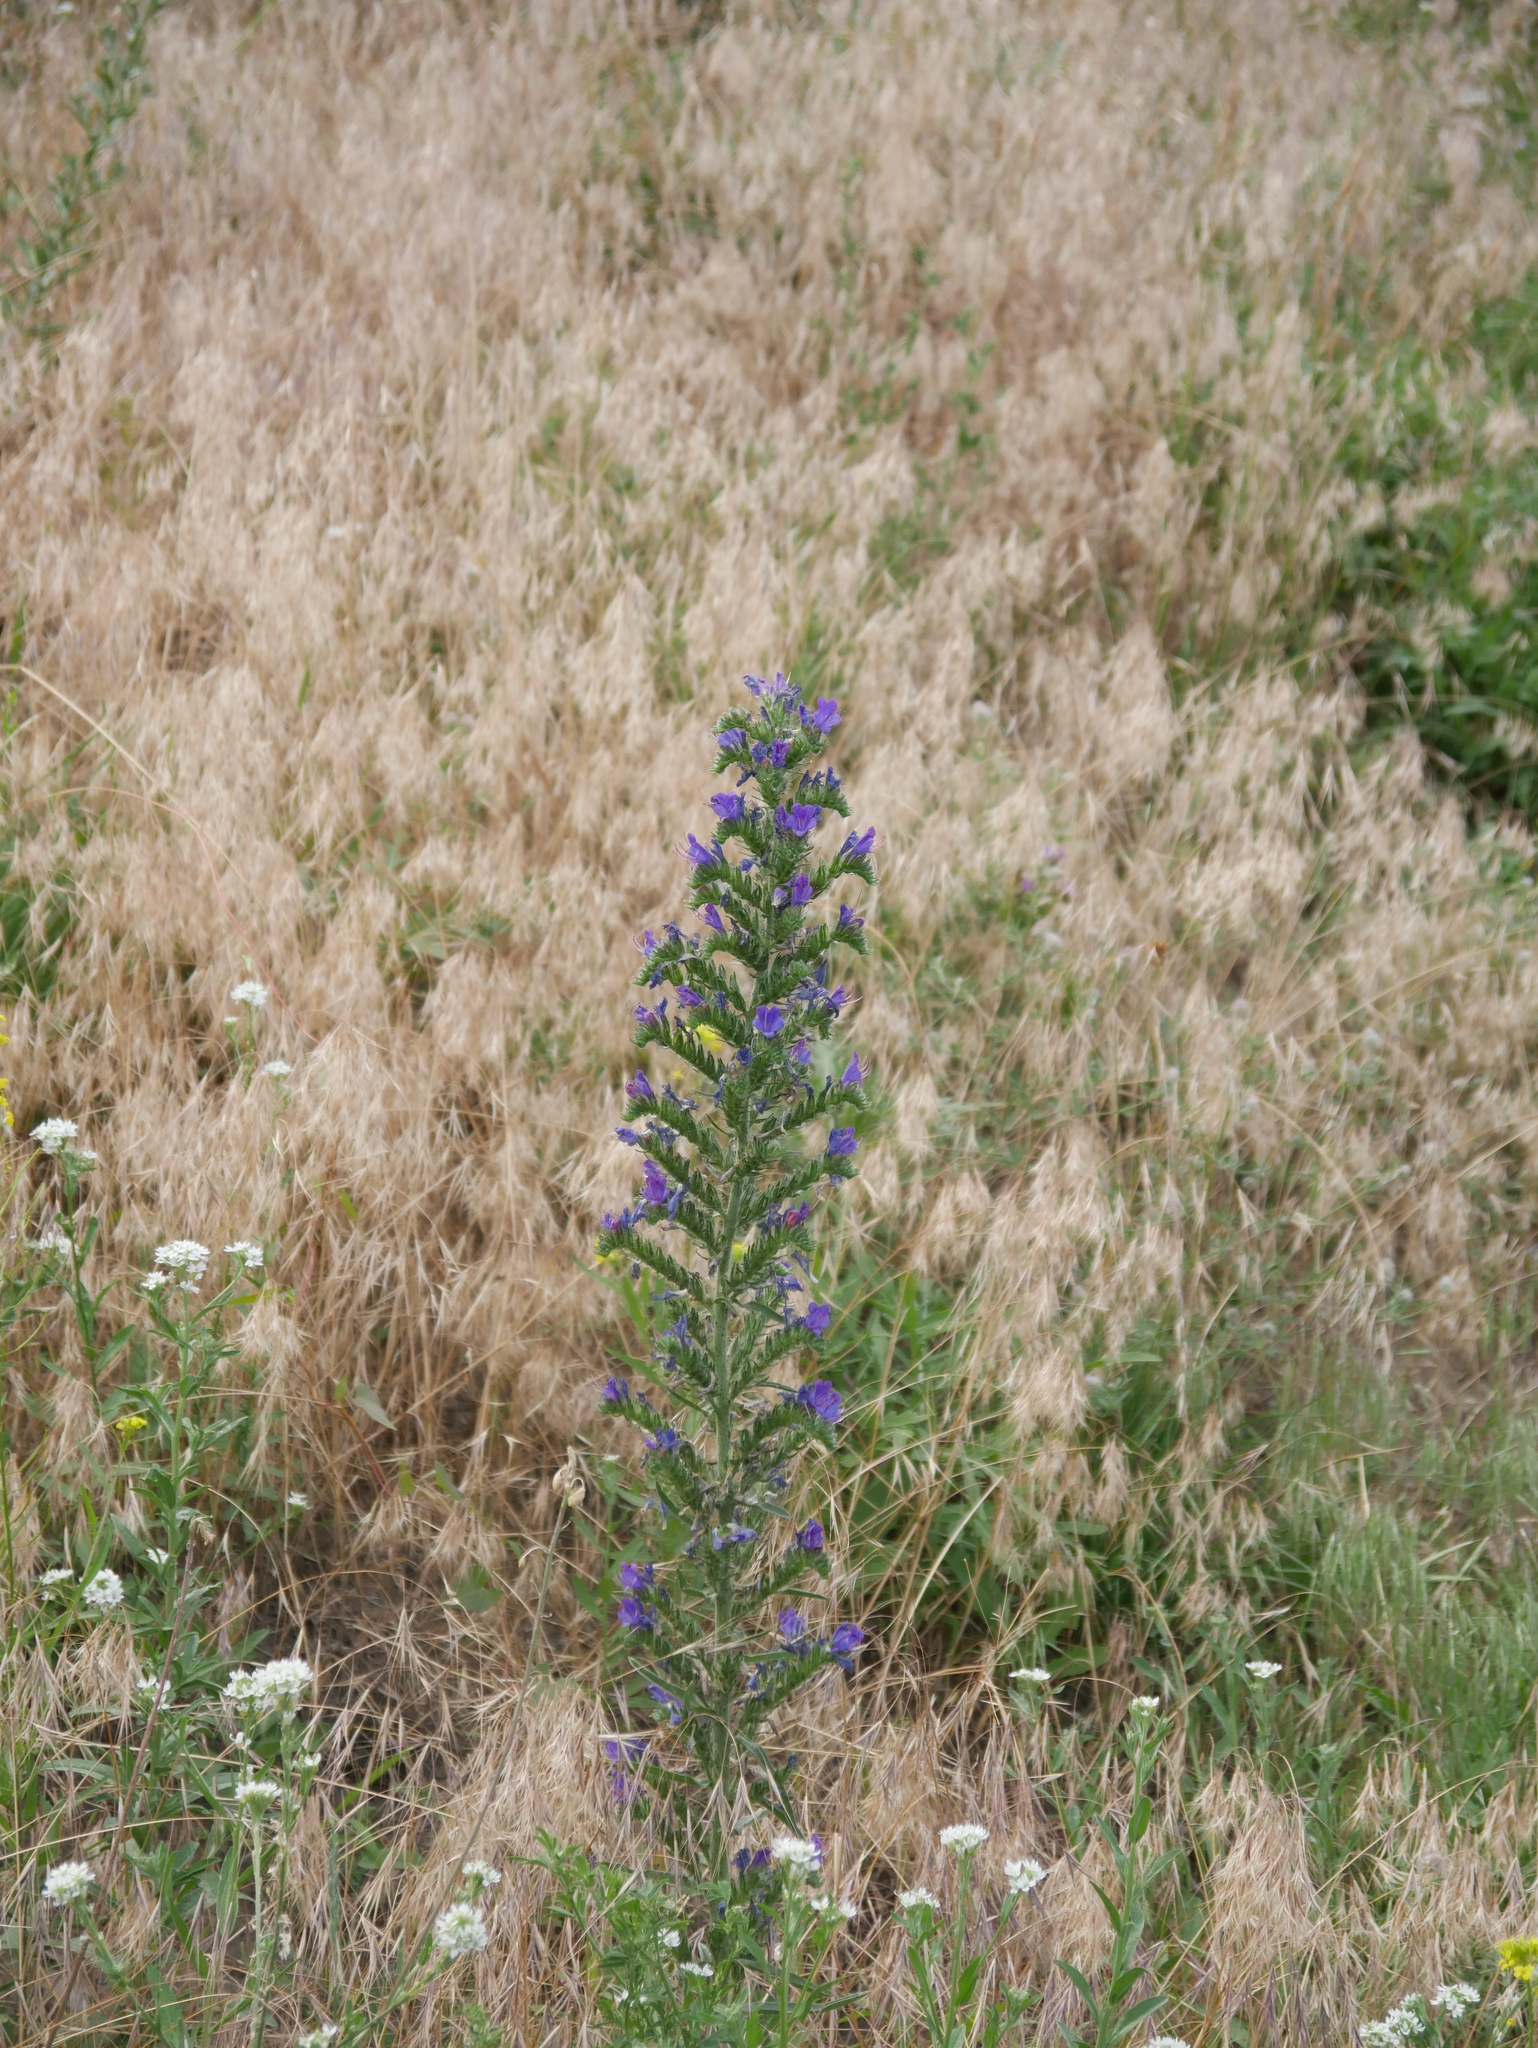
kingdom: Plantae
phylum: Tracheophyta
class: Magnoliopsida
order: Boraginales
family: Boraginaceae
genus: Echium
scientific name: Echium vulgare
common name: Common viper's bugloss
